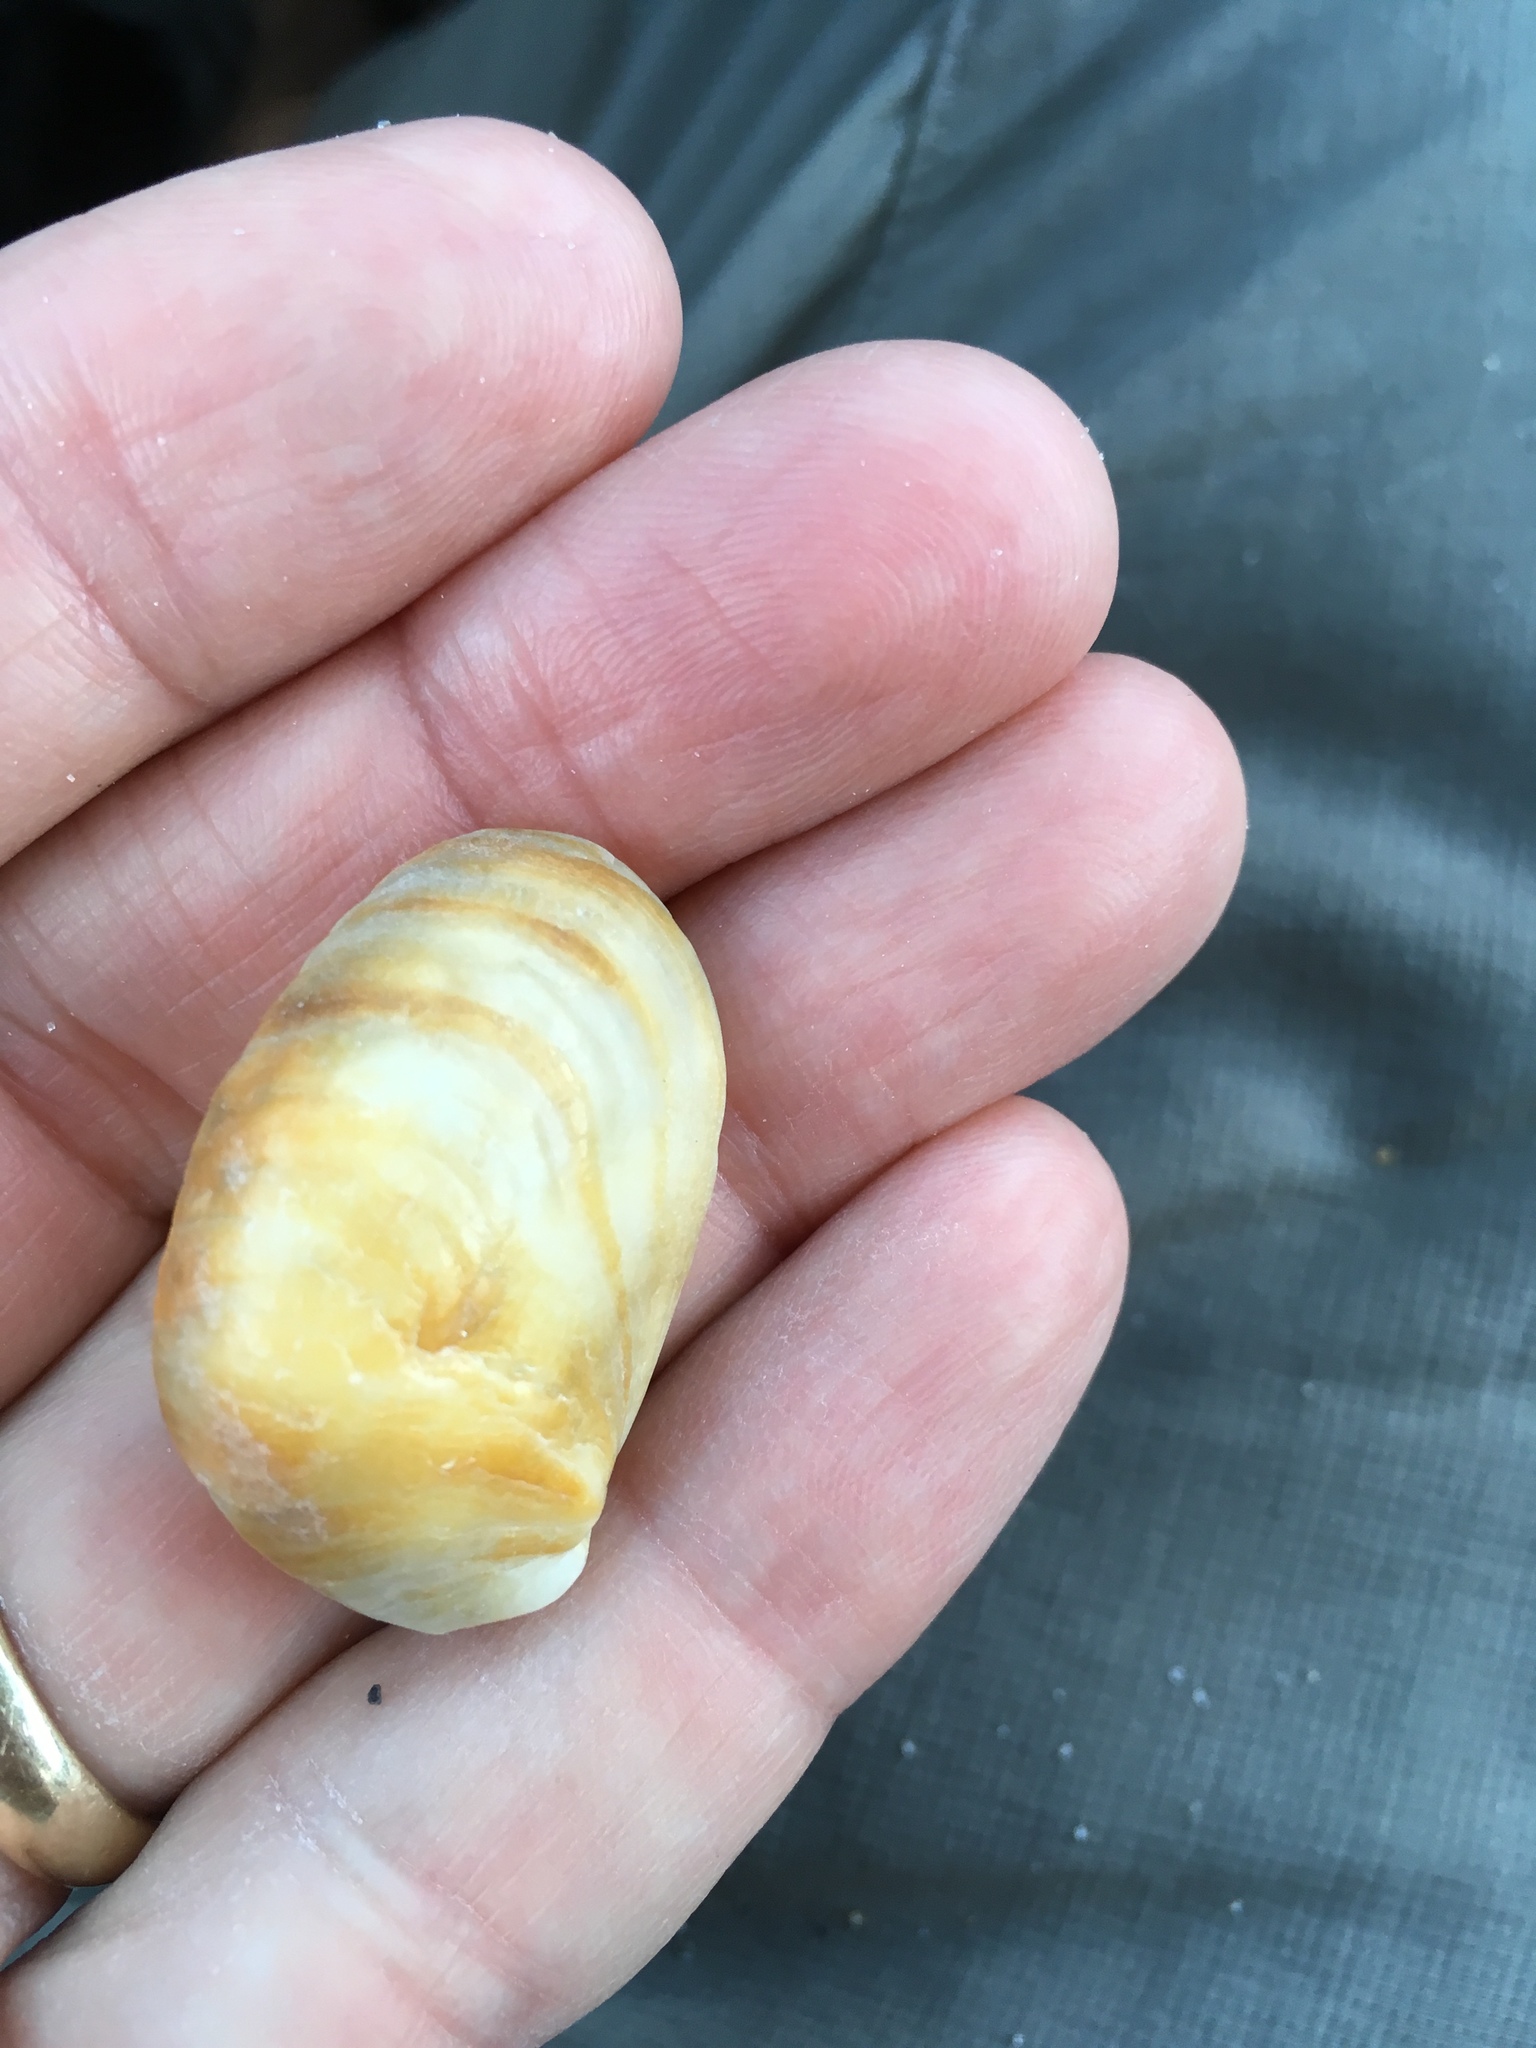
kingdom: Animalia
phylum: Mollusca
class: Gastropoda
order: Littorinimorpha
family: Calyptraeidae
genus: Crepidula
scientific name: Crepidula fornicata
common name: Slipper limpet
